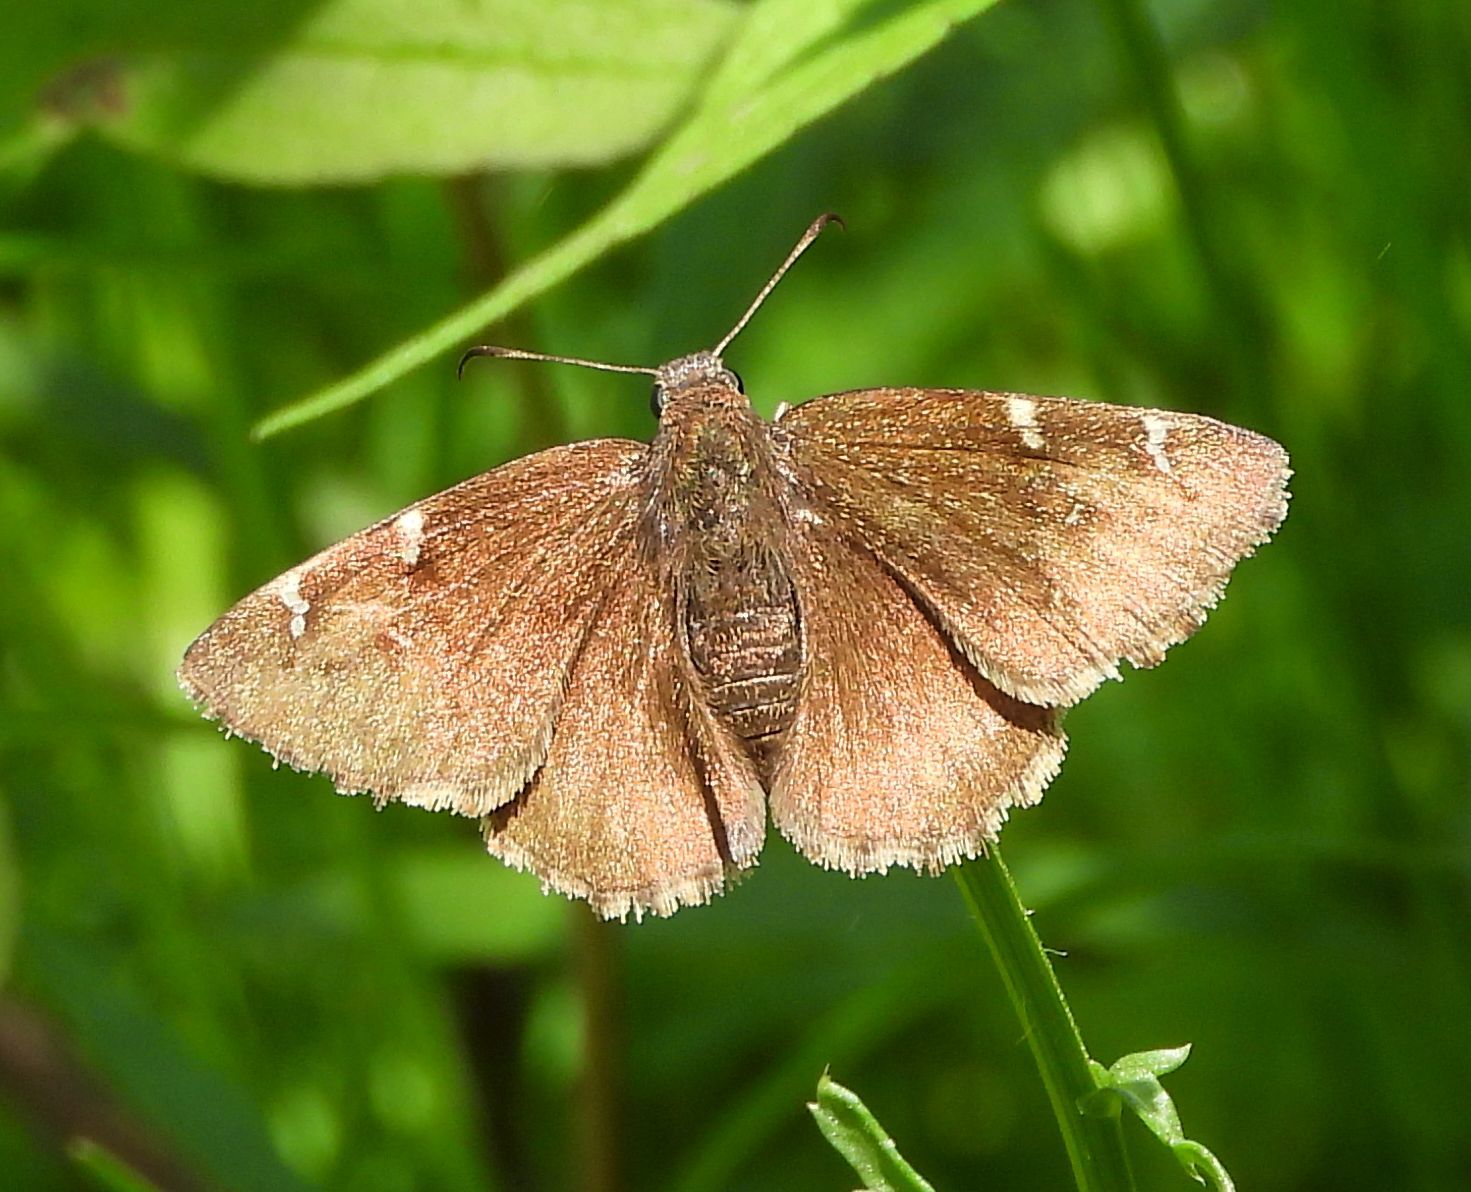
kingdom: Animalia
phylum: Arthropoda
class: Insecta
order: Lepidoptera
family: Hesperiidae
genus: Thorybes
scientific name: Thorybes pylades
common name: Northern cloudywing
